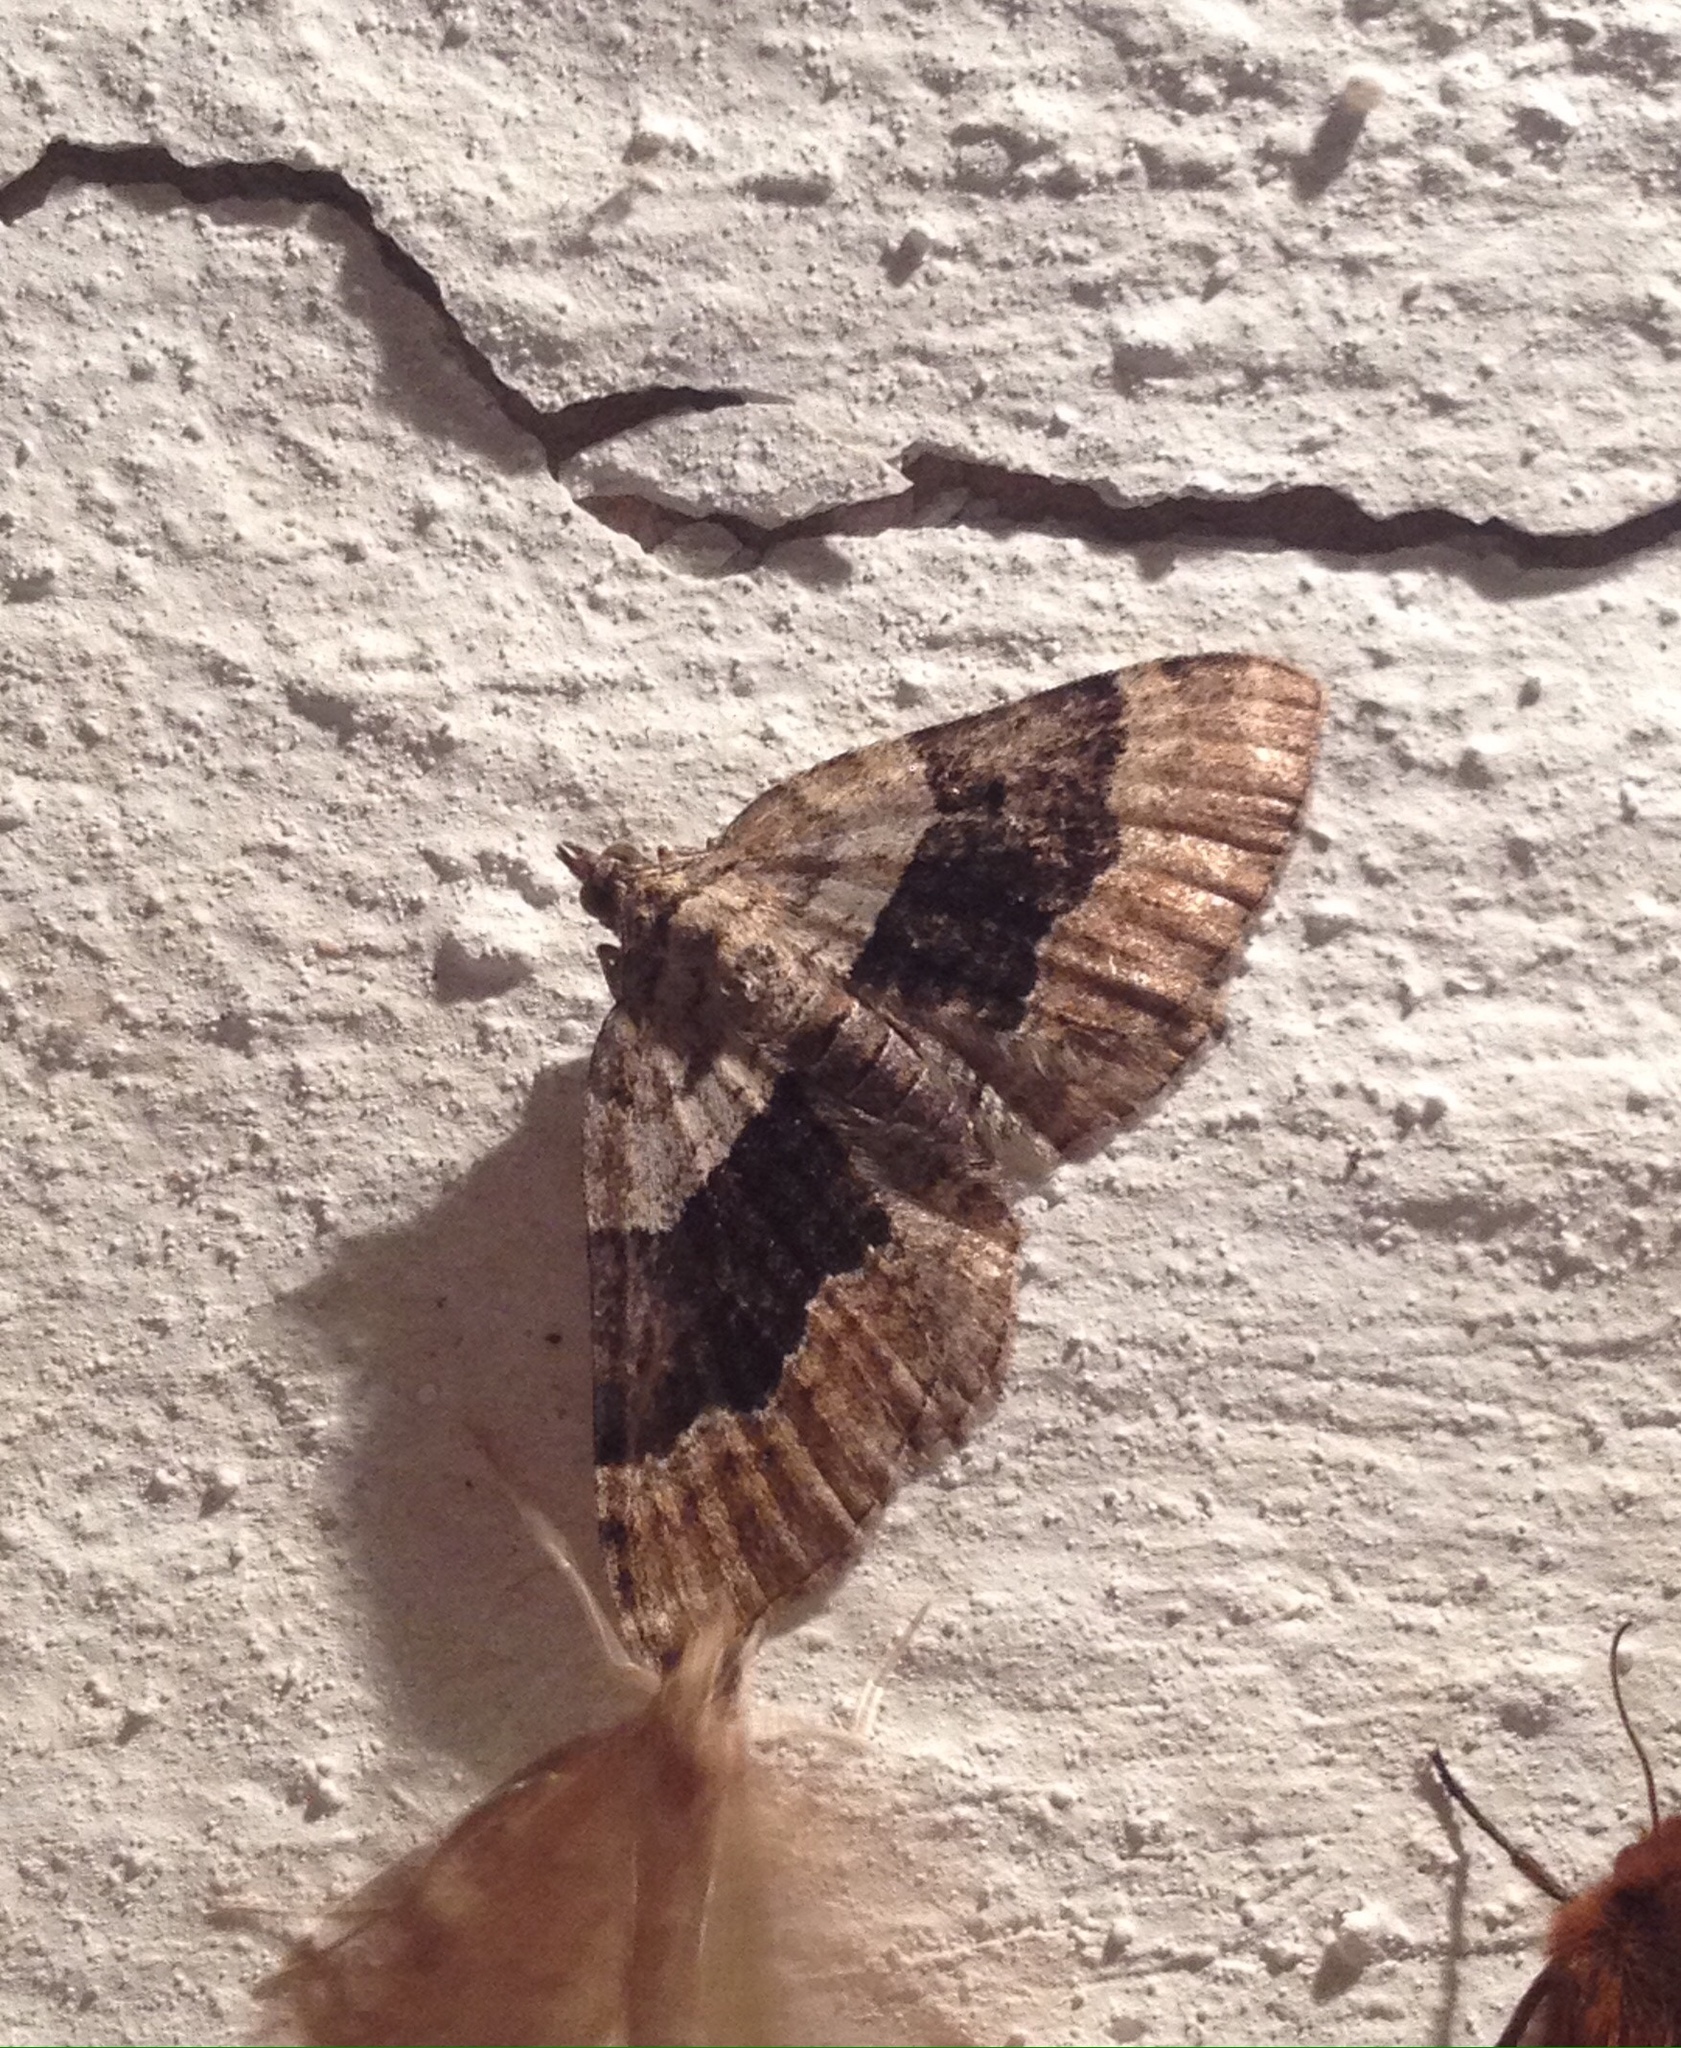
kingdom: Animalia
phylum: Arthropoda
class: Insecta
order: Lepidoptera
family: Geometridae
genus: Xanthorhoe
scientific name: Xanthorhoe quadrifasiata
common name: Large twin-spot carpet
